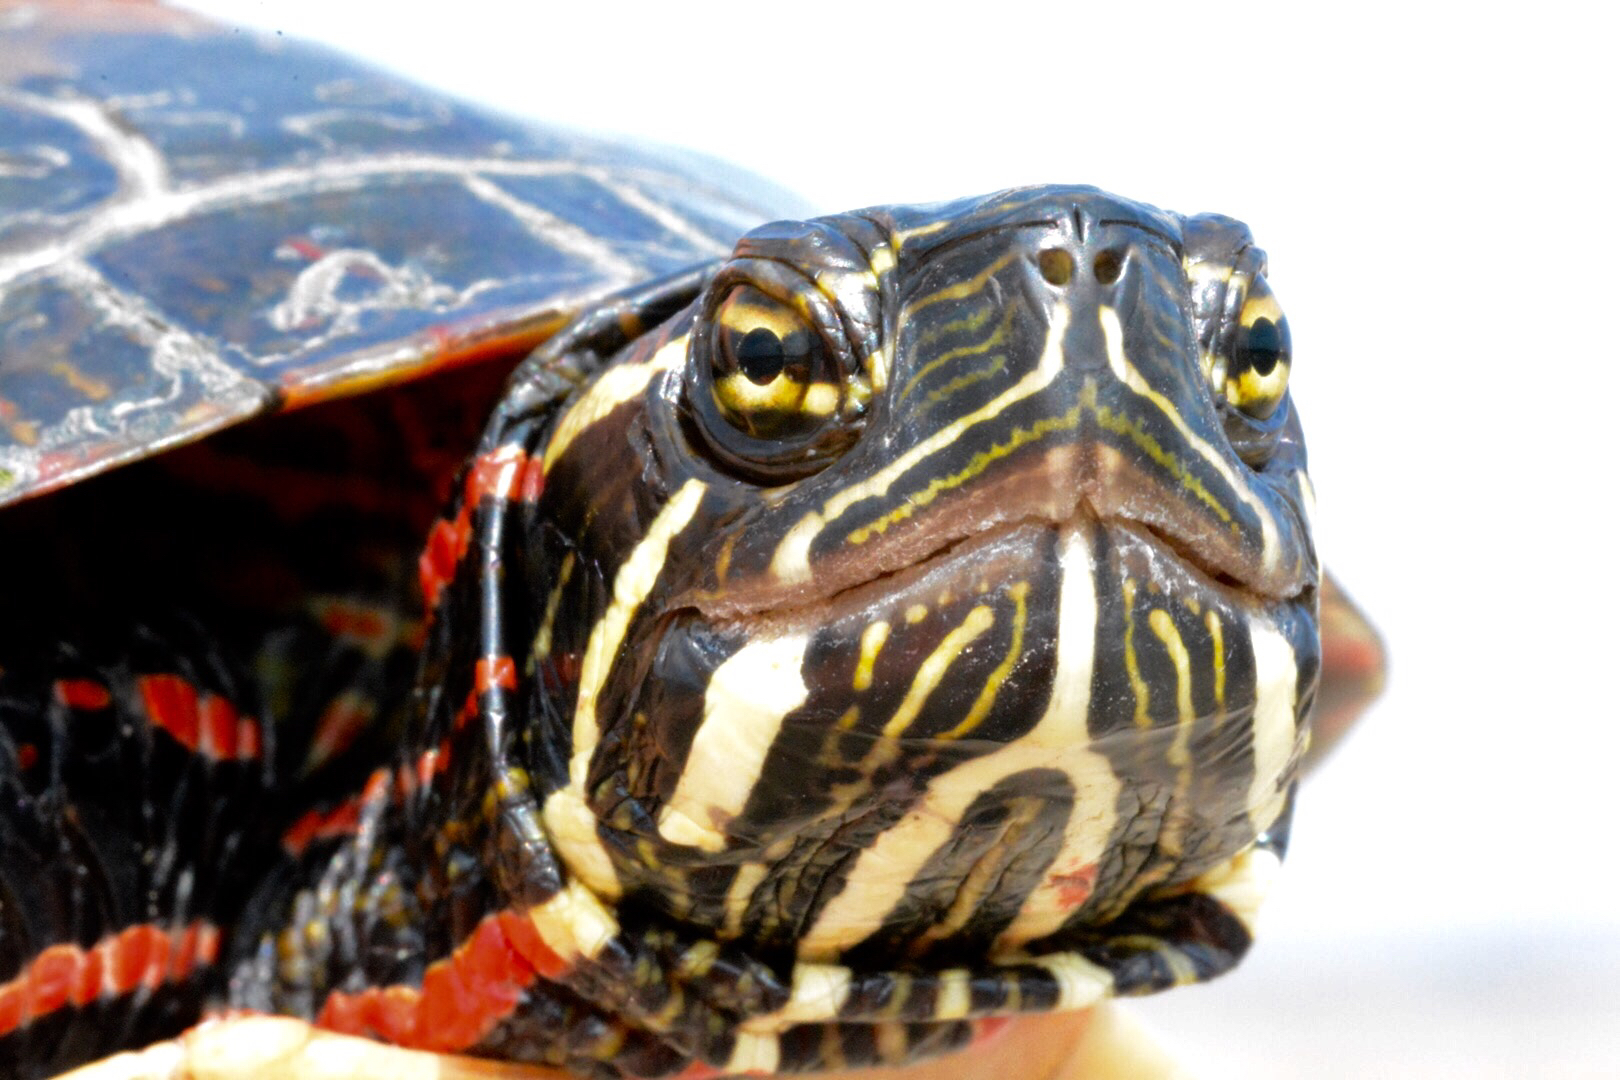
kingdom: Animalia
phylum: Chordata
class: Testudines
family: Emydidae
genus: Chrysemys
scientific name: Chrysemys picta
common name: Painted turtle
